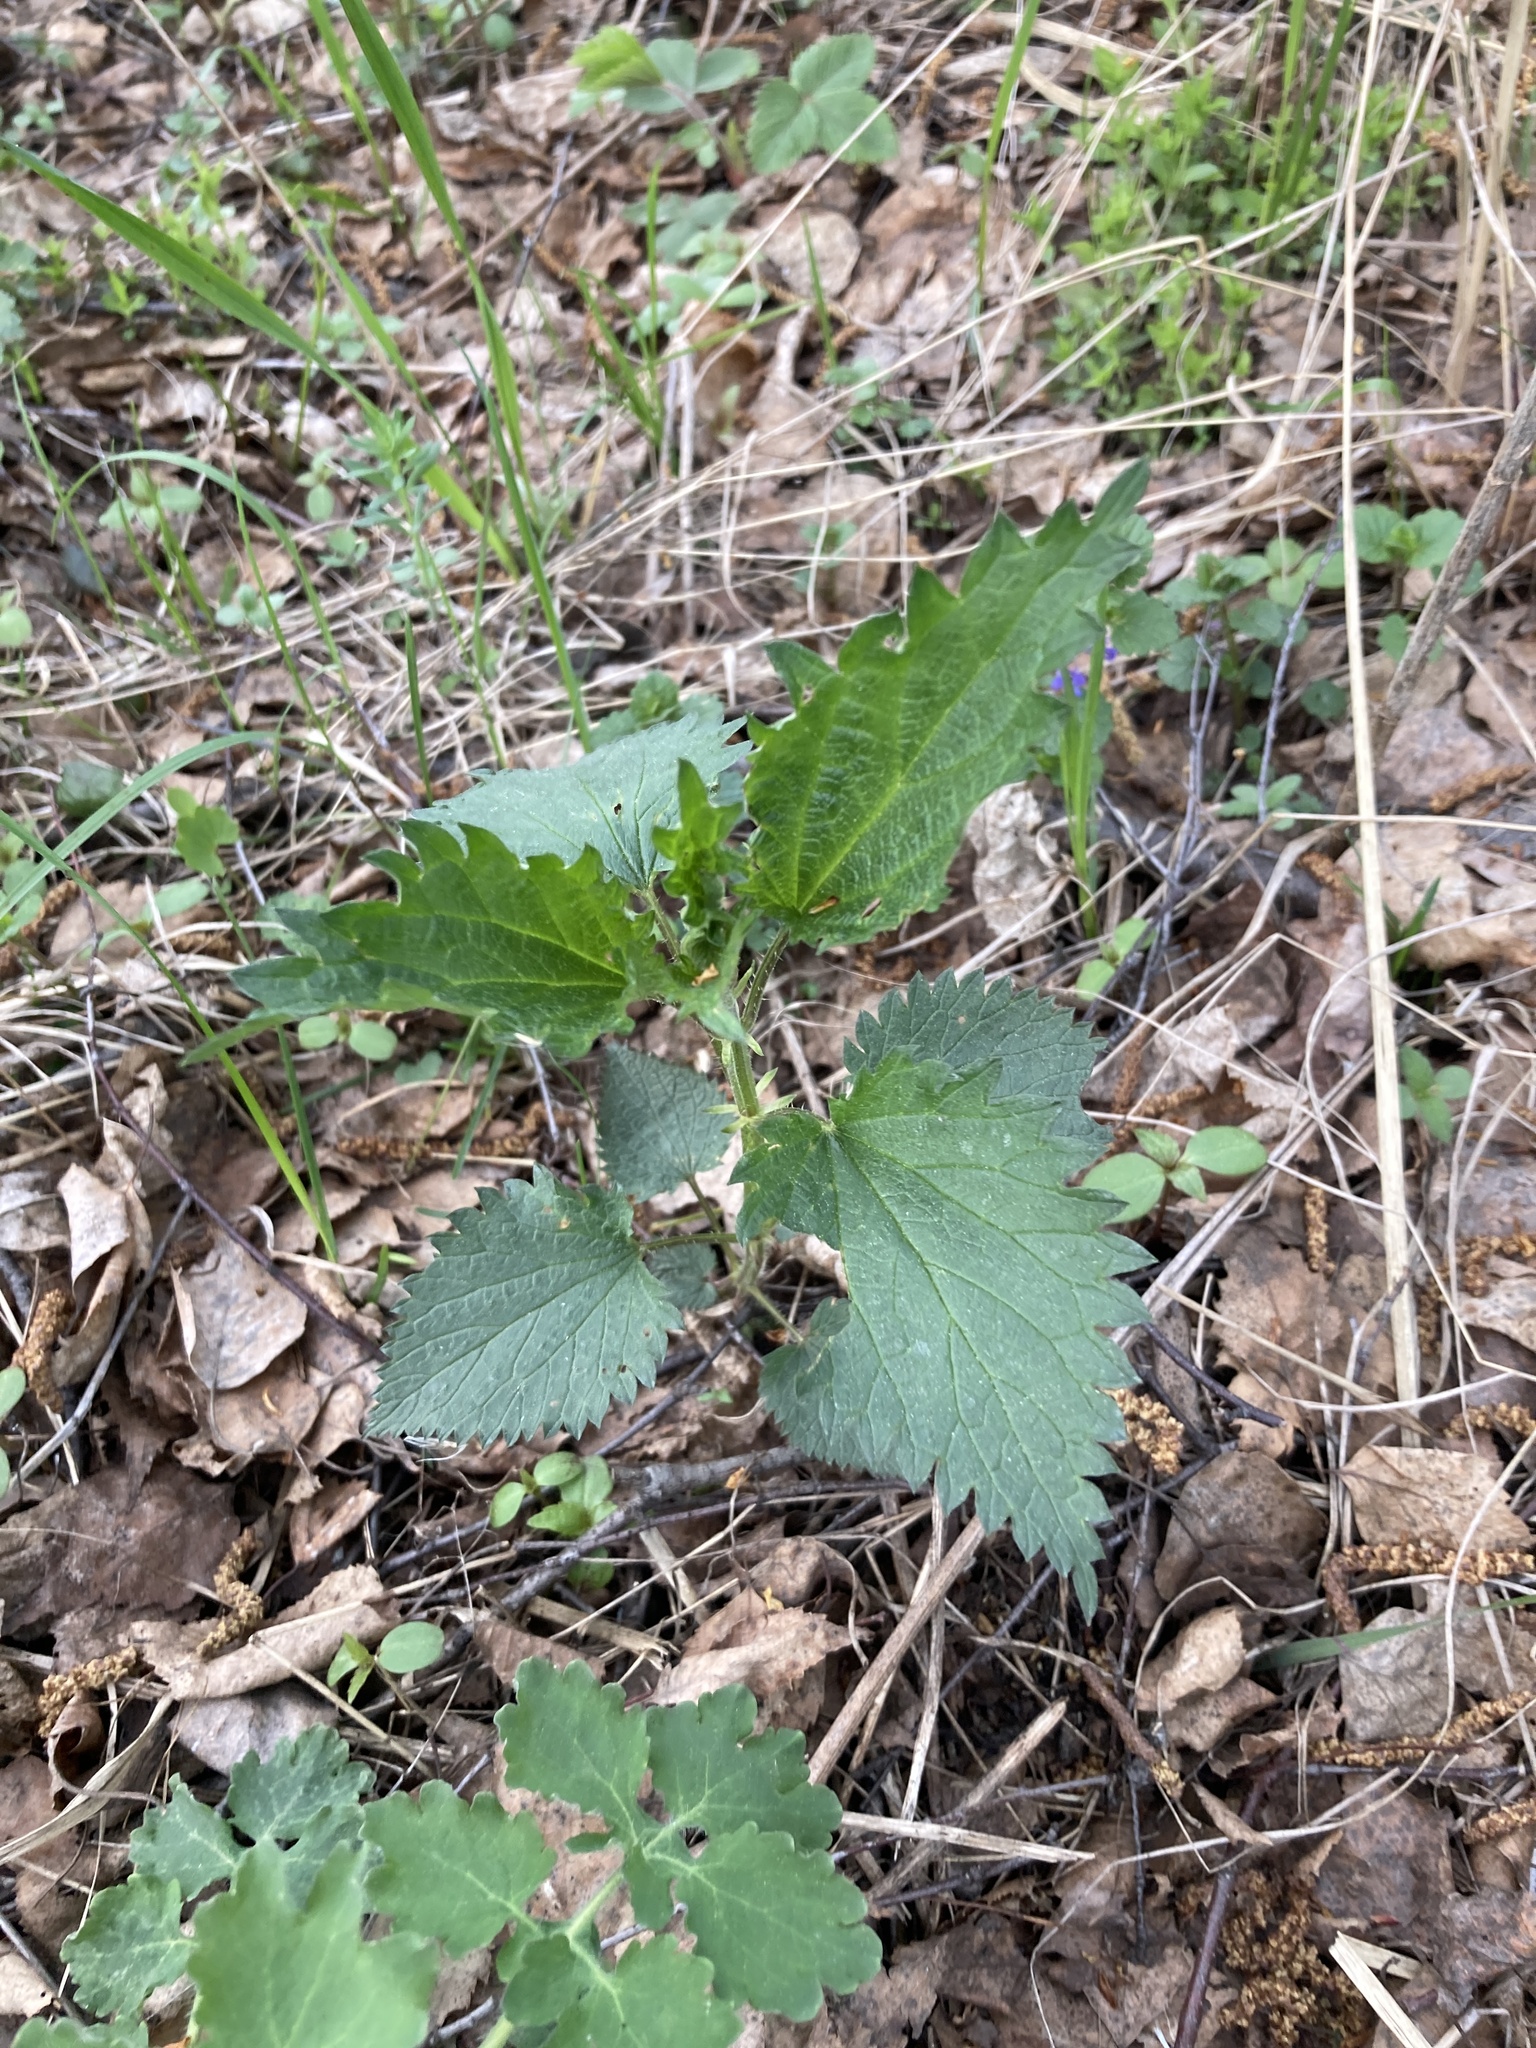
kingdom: Plantae
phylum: Tracheophyta
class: Magnoliopsida
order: Rosales
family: Urticaceae
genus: Urtica
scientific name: Urtica dioica
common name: Common nettle
